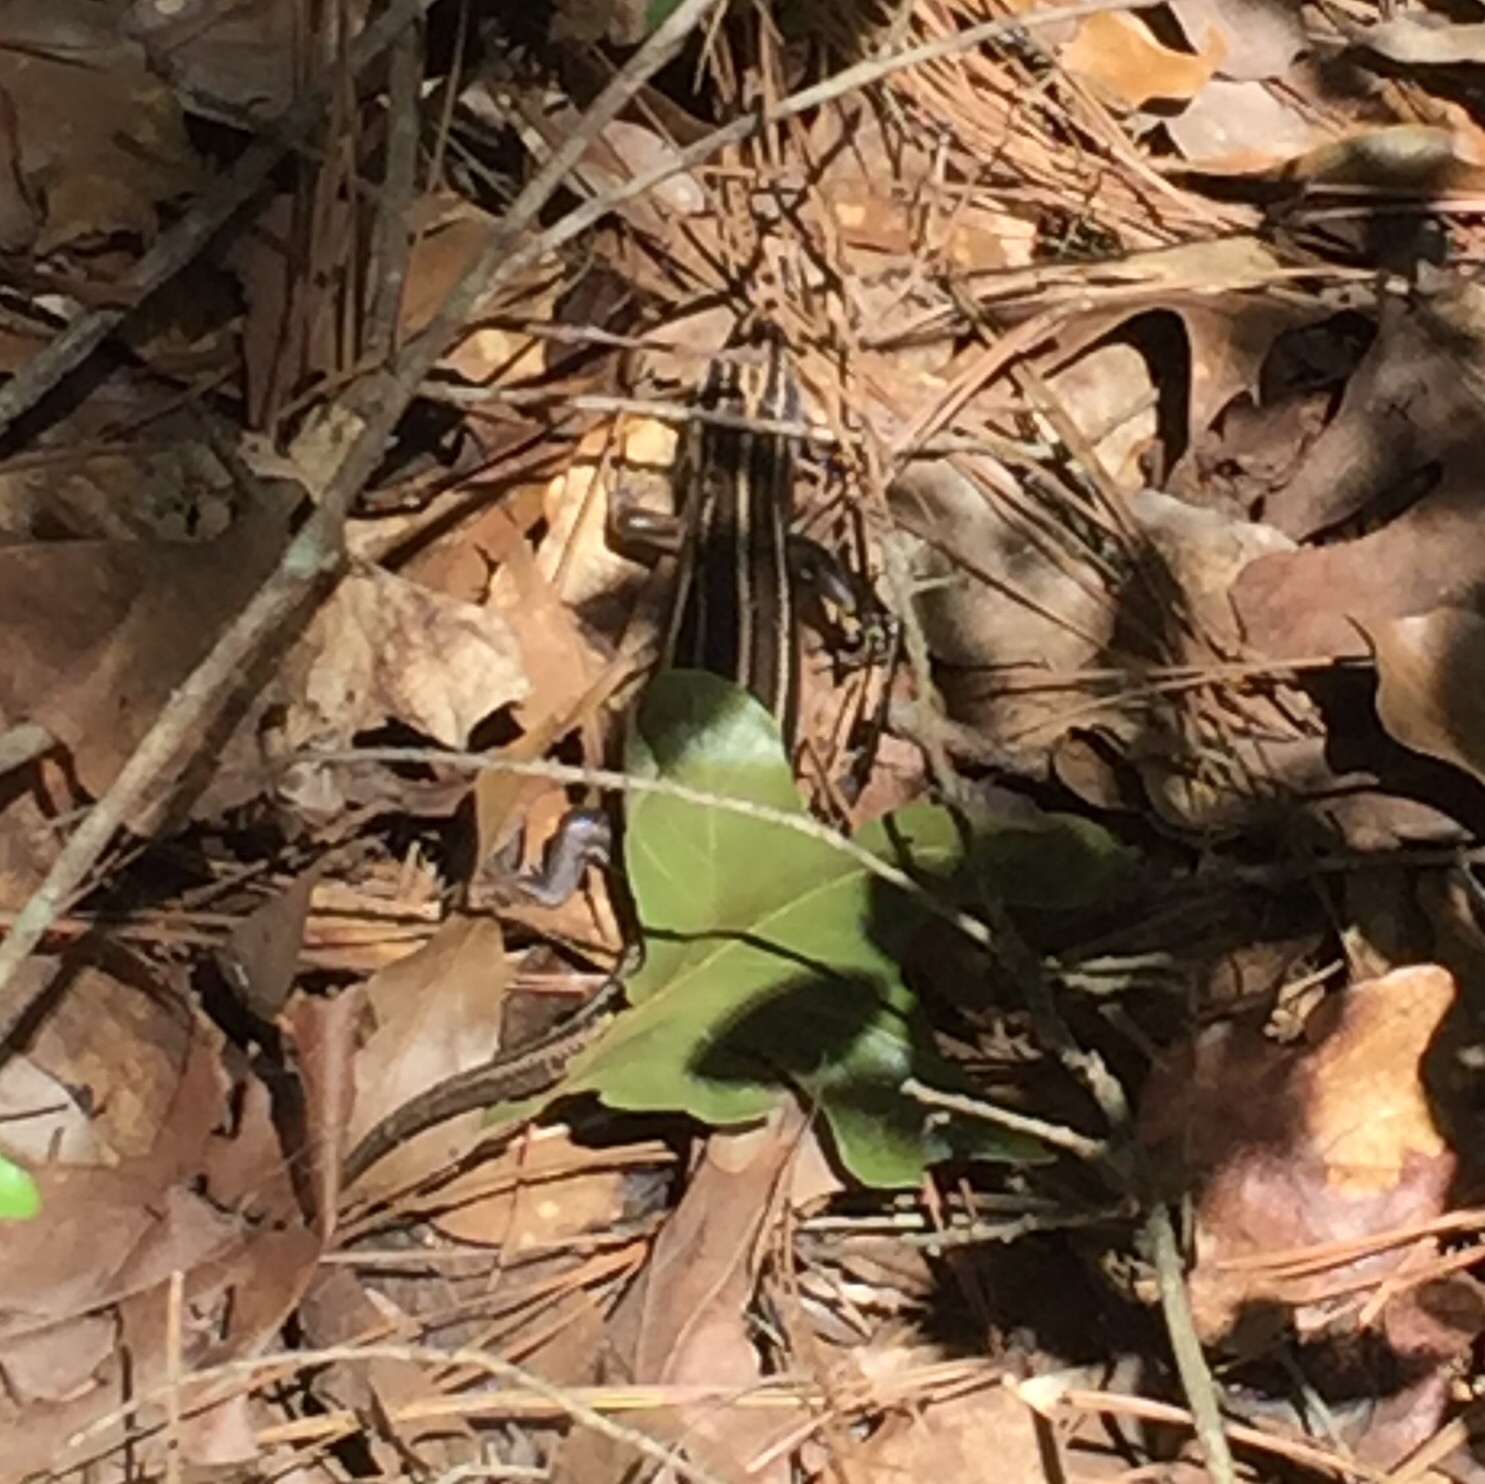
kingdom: Animalia
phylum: Chordata
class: Squamata
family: Scincidae
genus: Plestiodon
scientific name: Plestiodon fasciatus
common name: Five-lined skink
